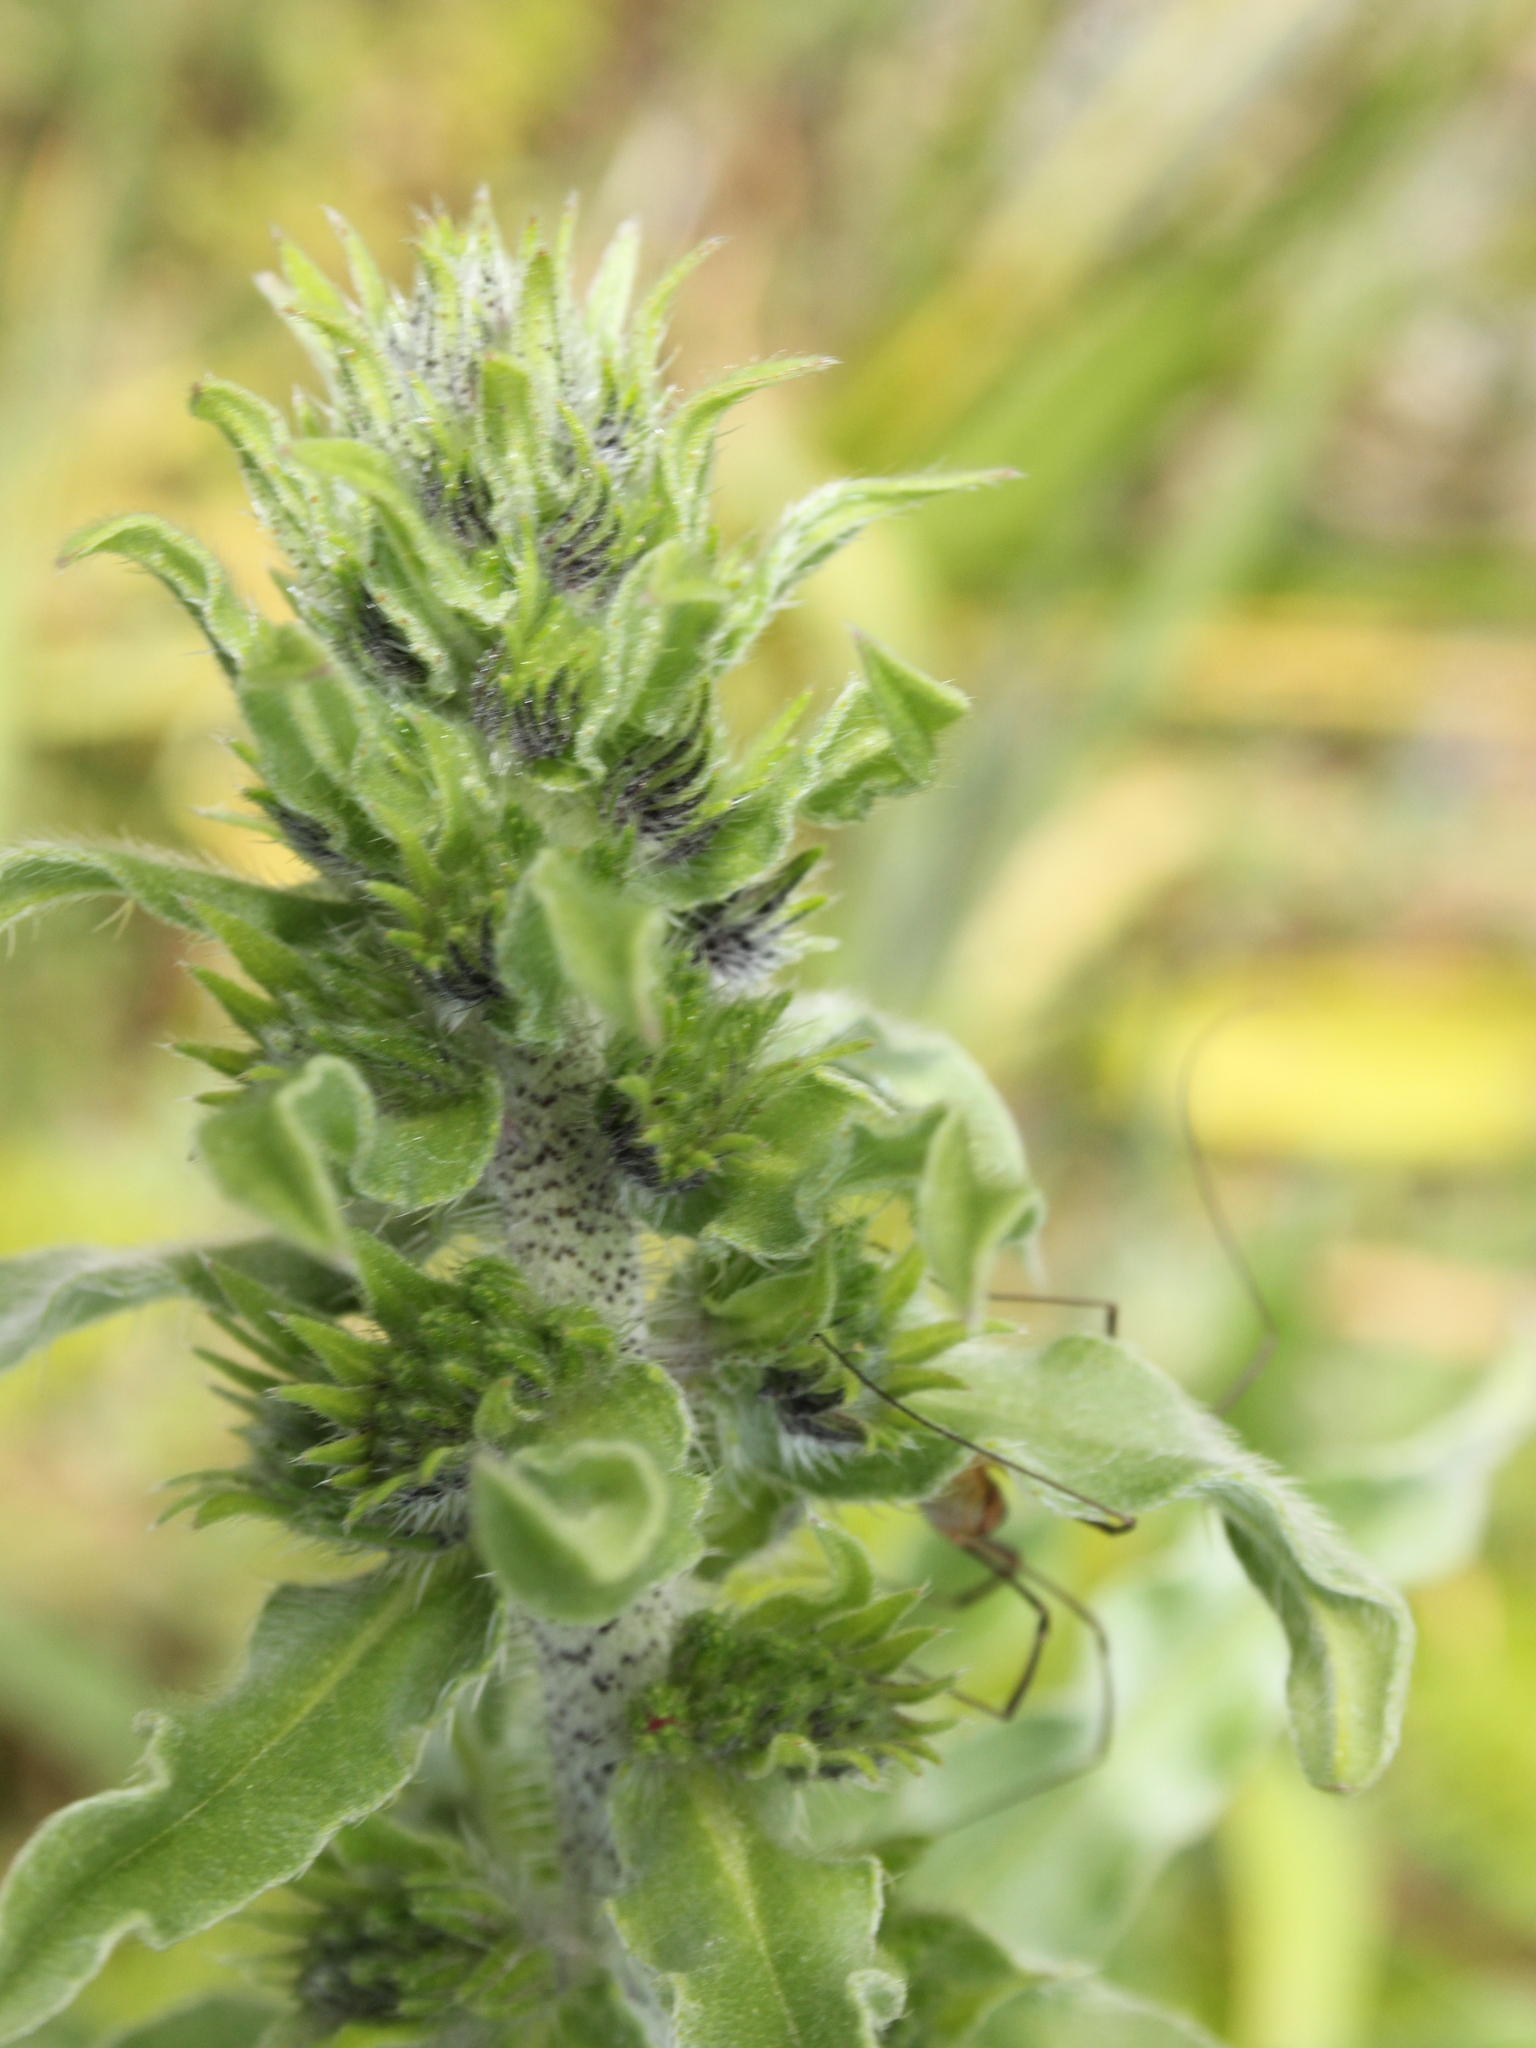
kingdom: Plantae
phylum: Tracheophyta
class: Magnoliopsida
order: Boraginales
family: Boraginaceae
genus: Echium
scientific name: Echium vulgare
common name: Common viper's bugloss
